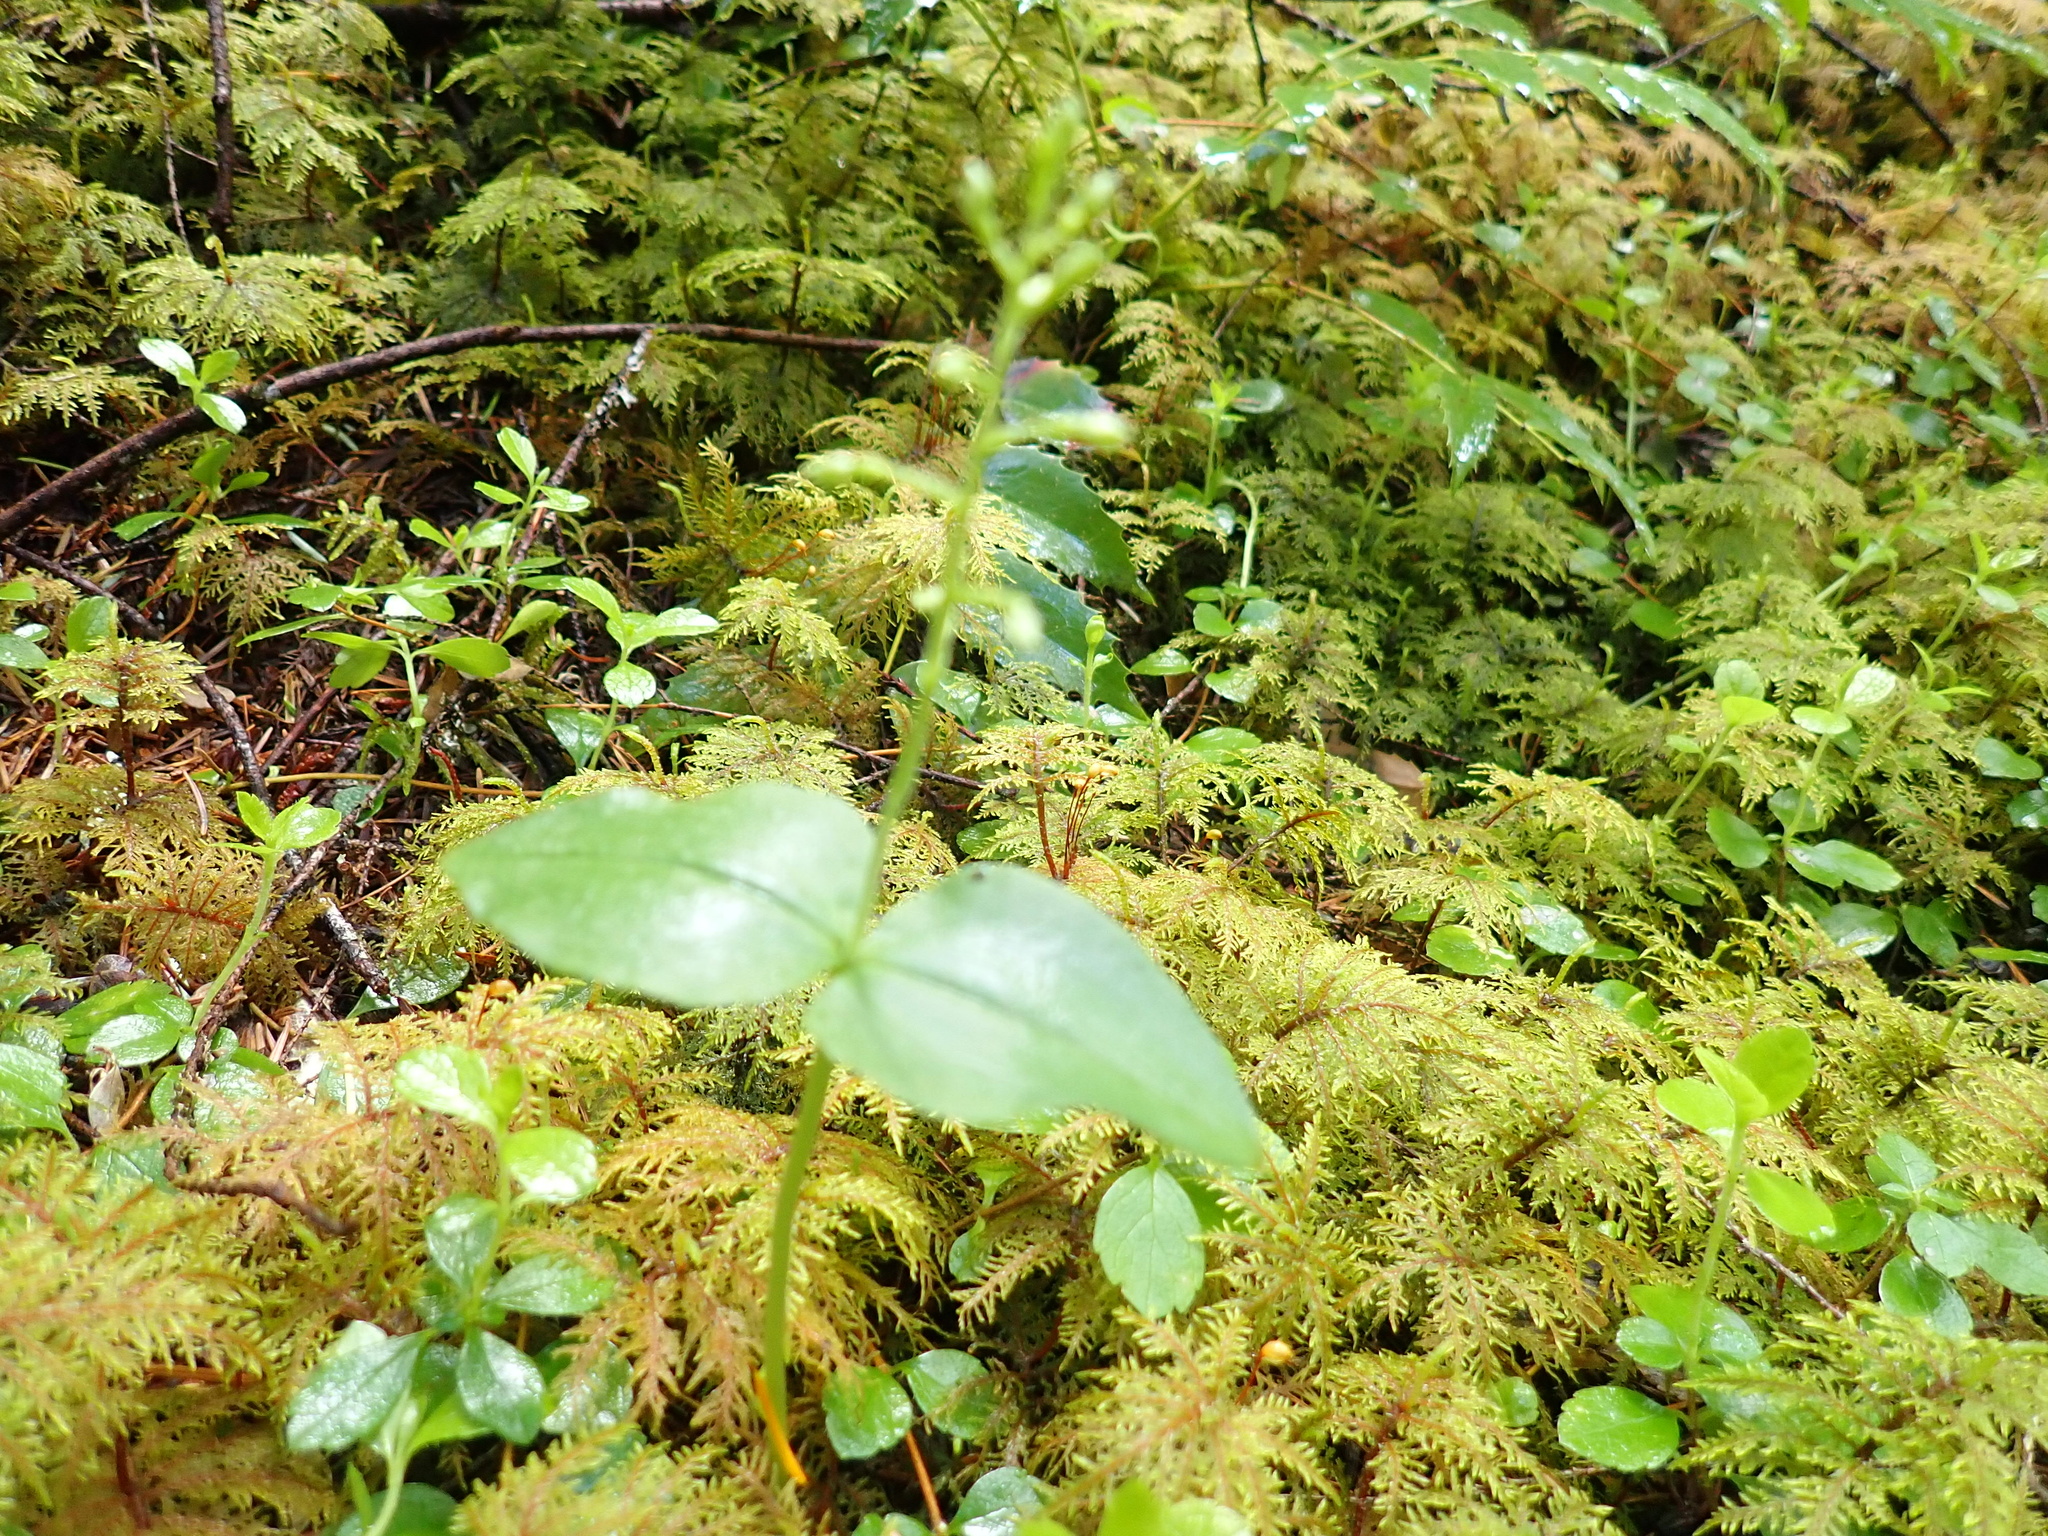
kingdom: Plantae
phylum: Tracheophyta
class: Liliopsida
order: Asparagales
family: Orchidaceae
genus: Neottia
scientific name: Neottia cordata
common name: Lesser twayblade
